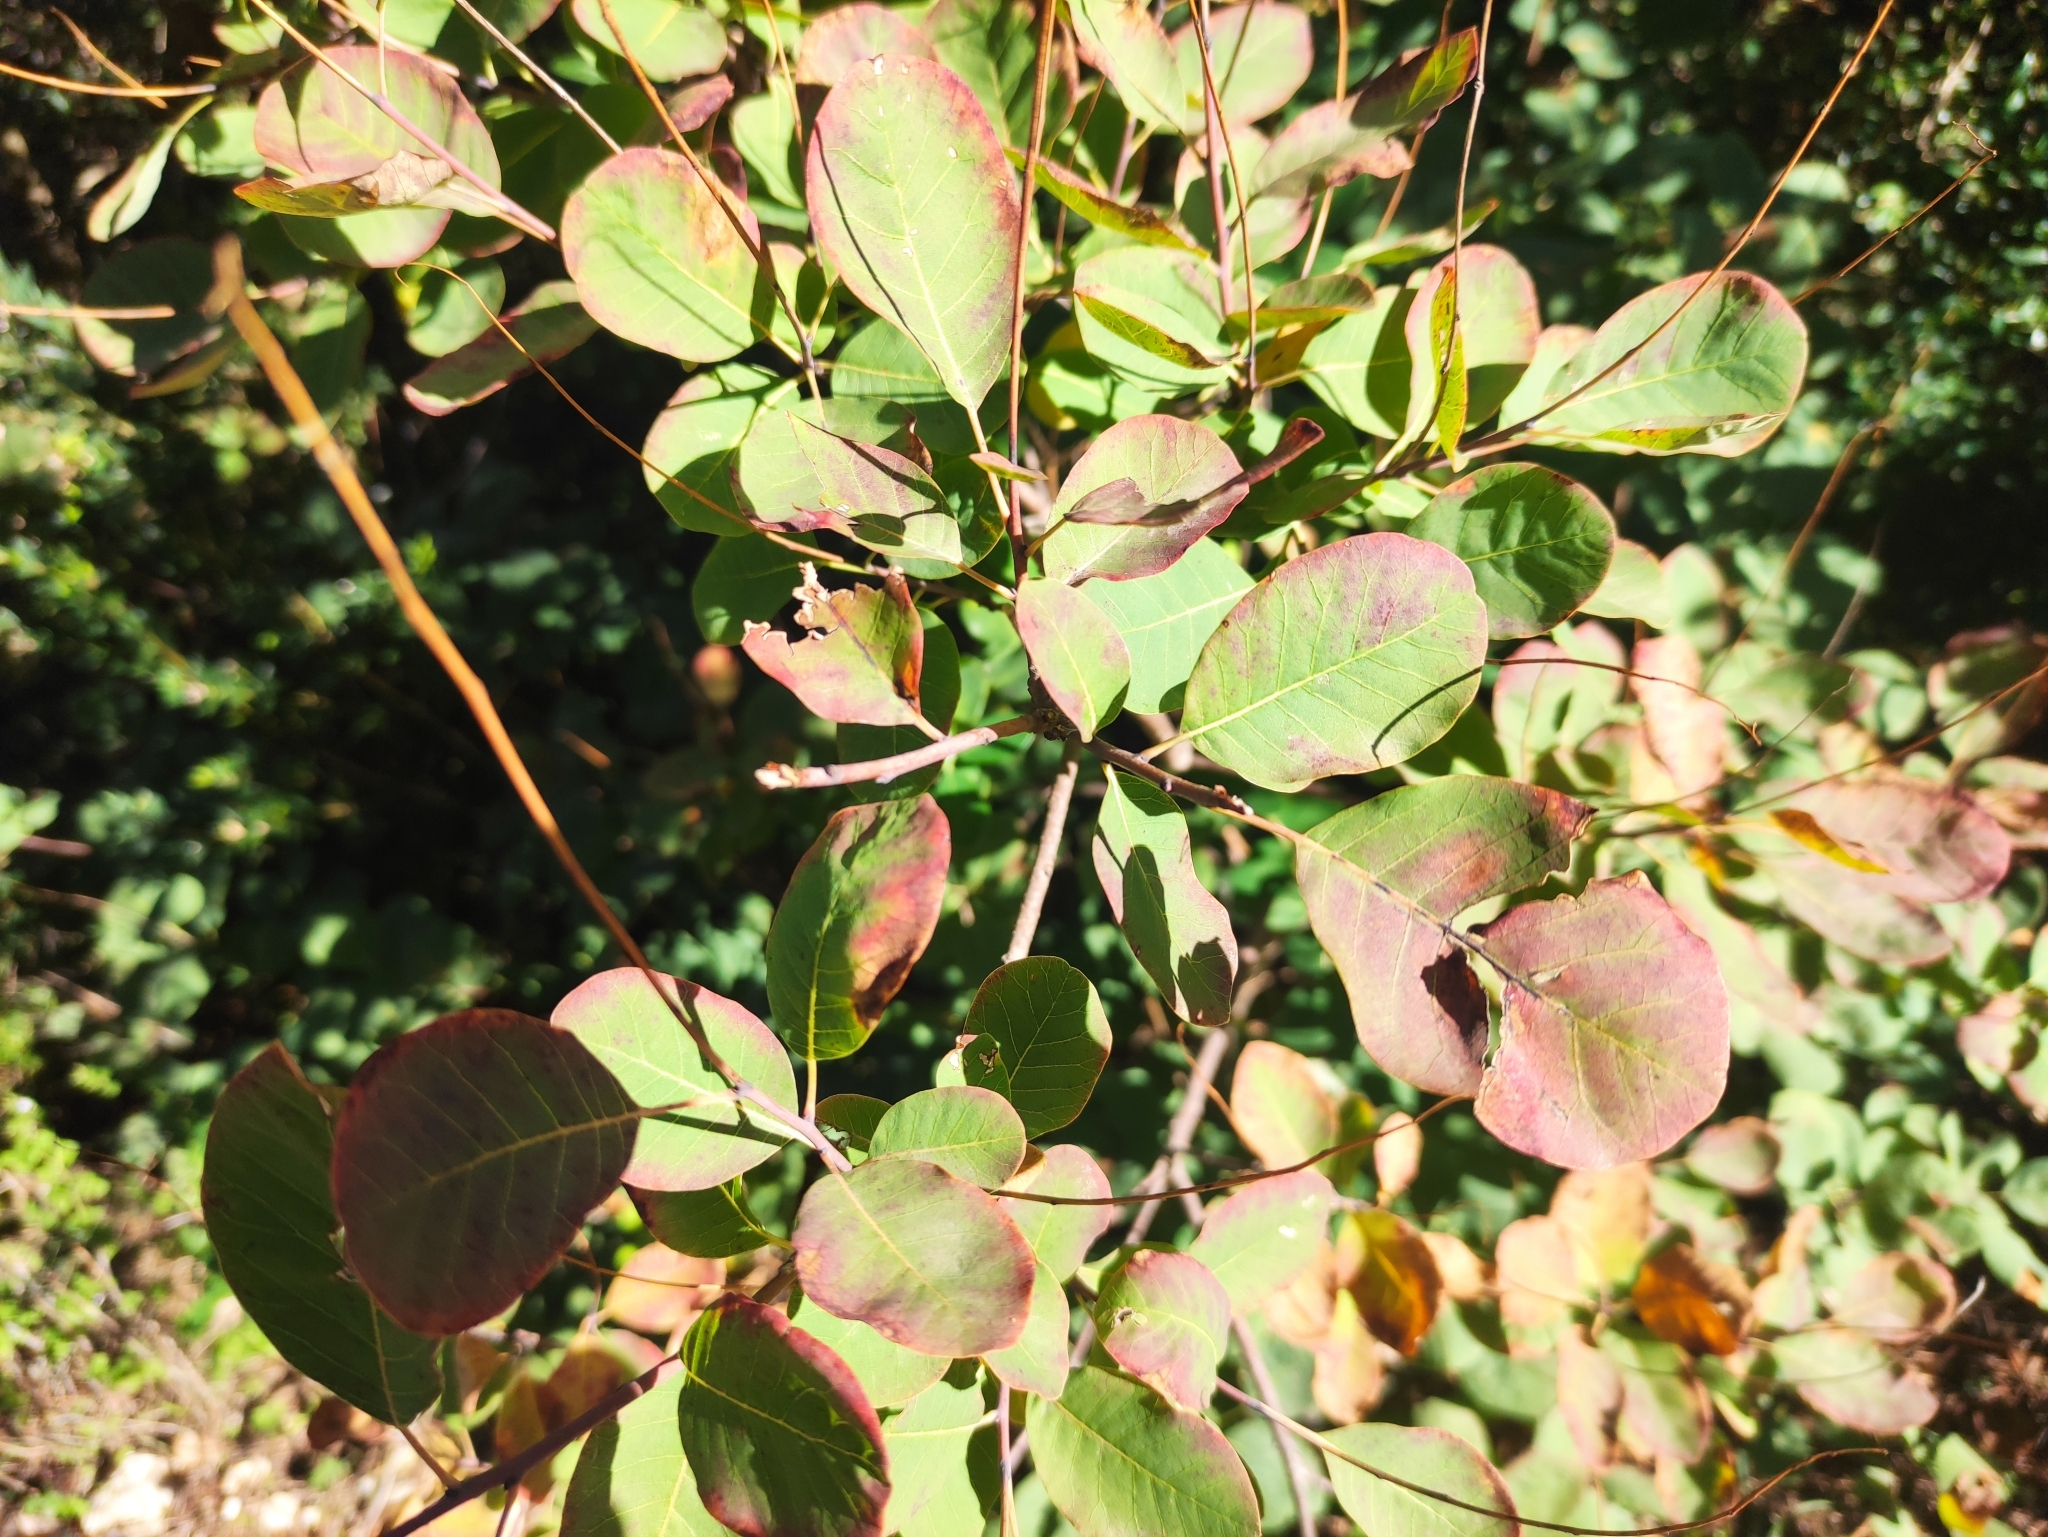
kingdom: Plantae
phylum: Tracheophyta
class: Magnoliopsida
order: Sapindales
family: Anacardiaceae
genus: Cotinus
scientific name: Cotinus coggygria
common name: Smoke-tree
